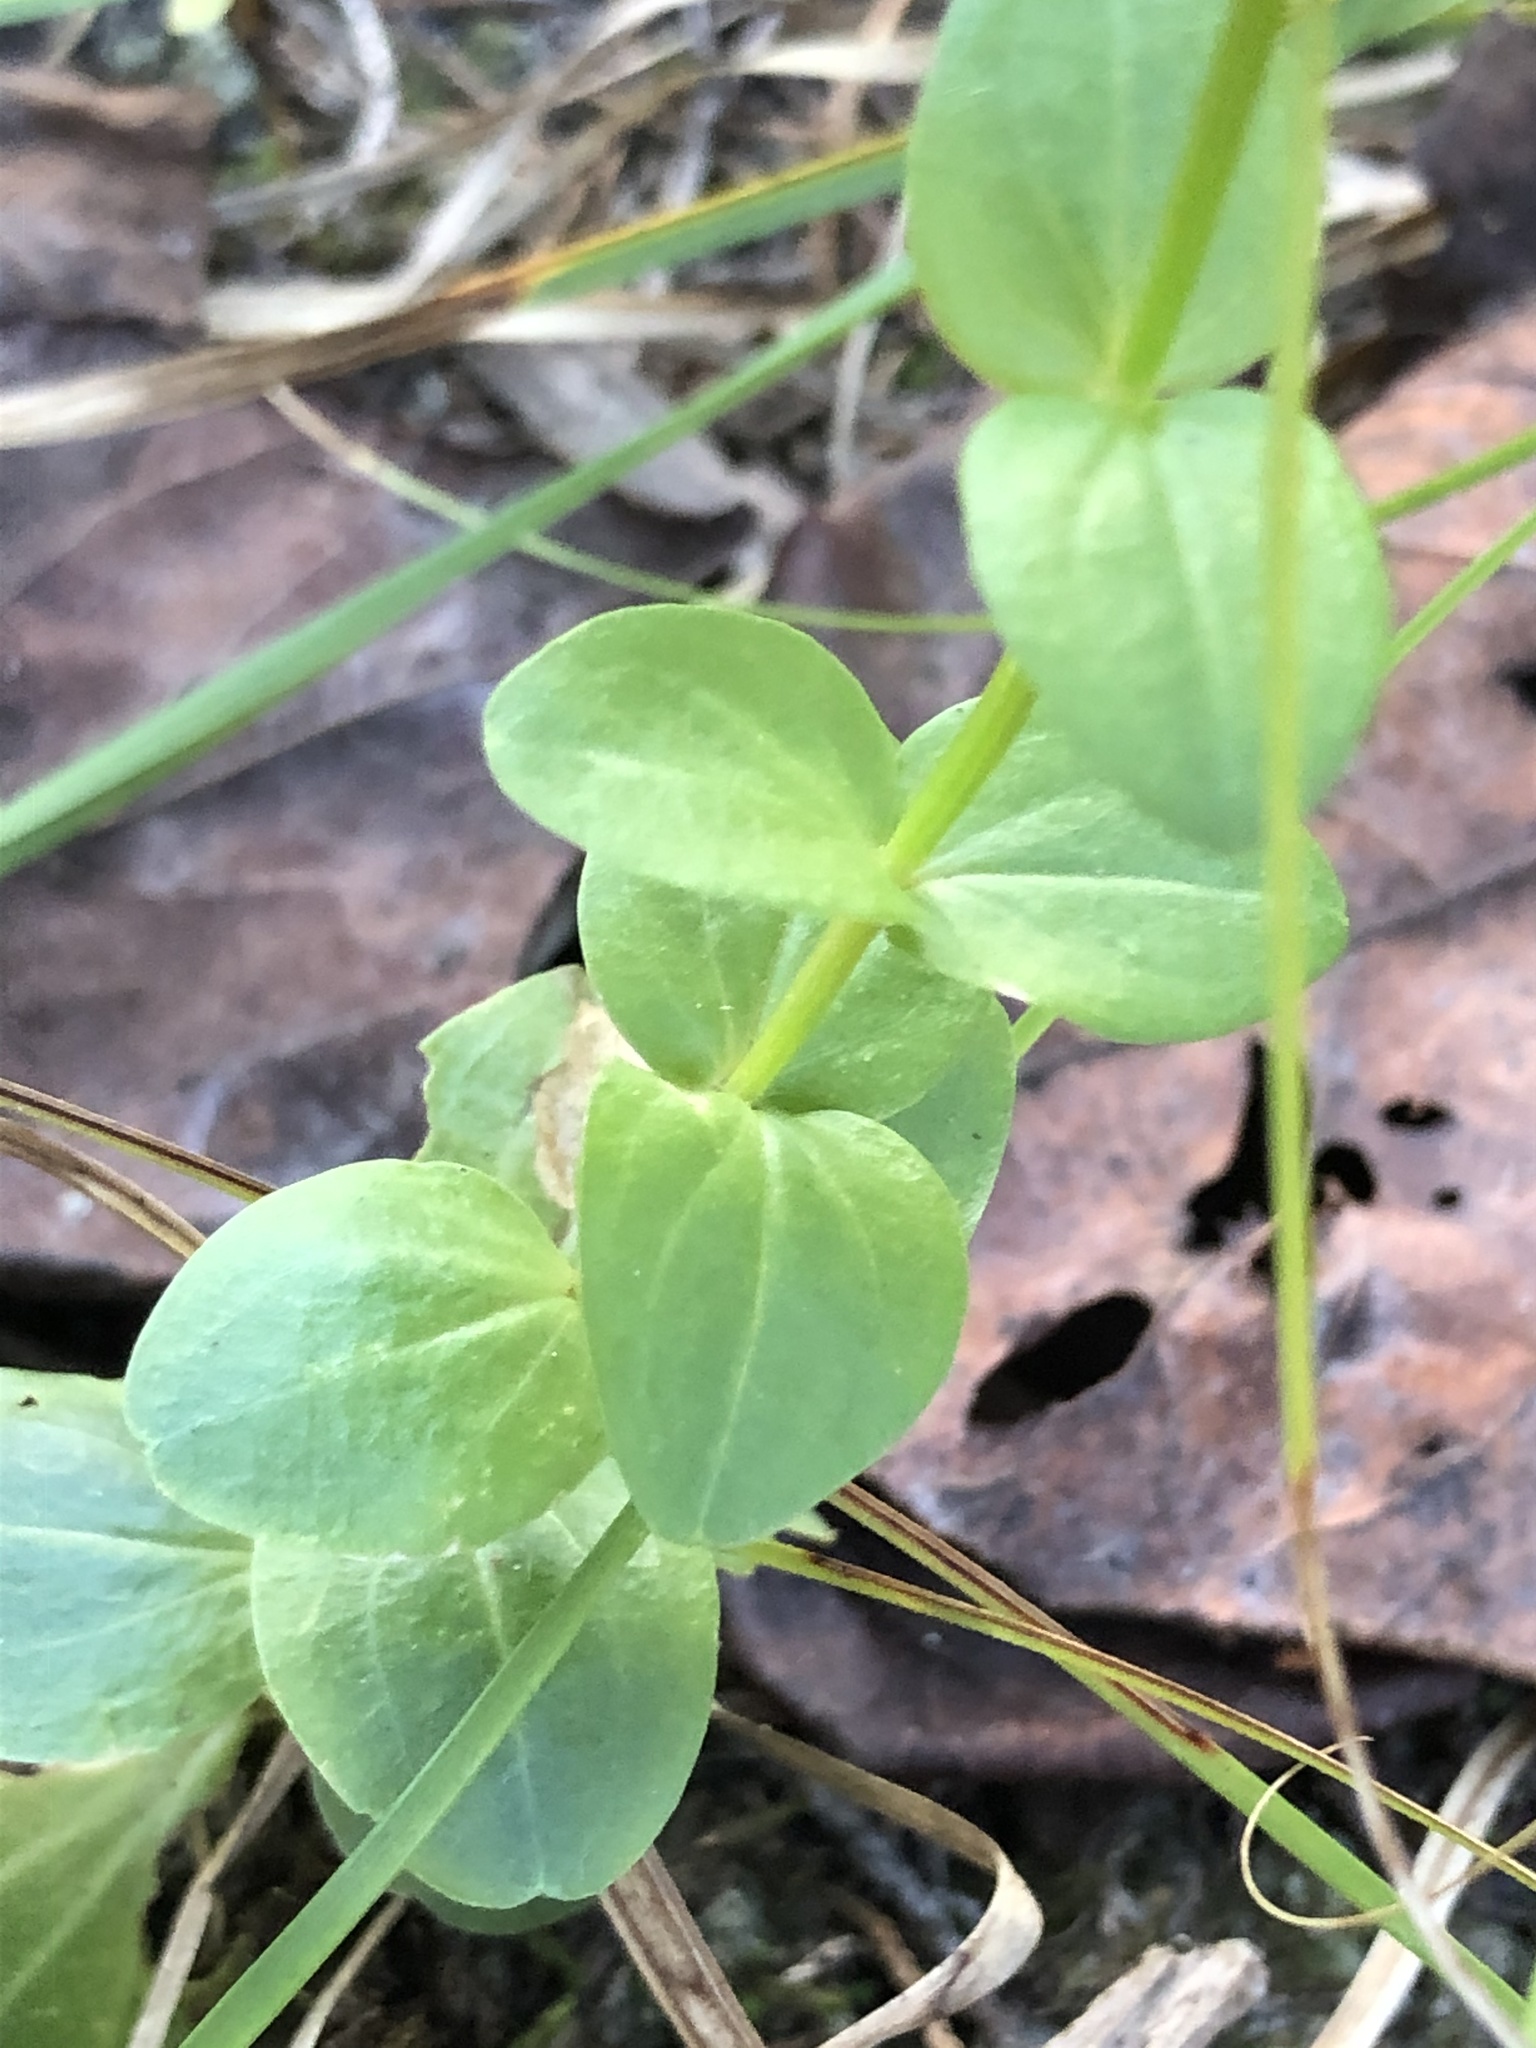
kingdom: Plantae
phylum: Tracheophyta
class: Magnoliopsida
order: Gentianales
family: Gentianaceae
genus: Sabatia
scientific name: Sabatia angularis
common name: Rose-pink
